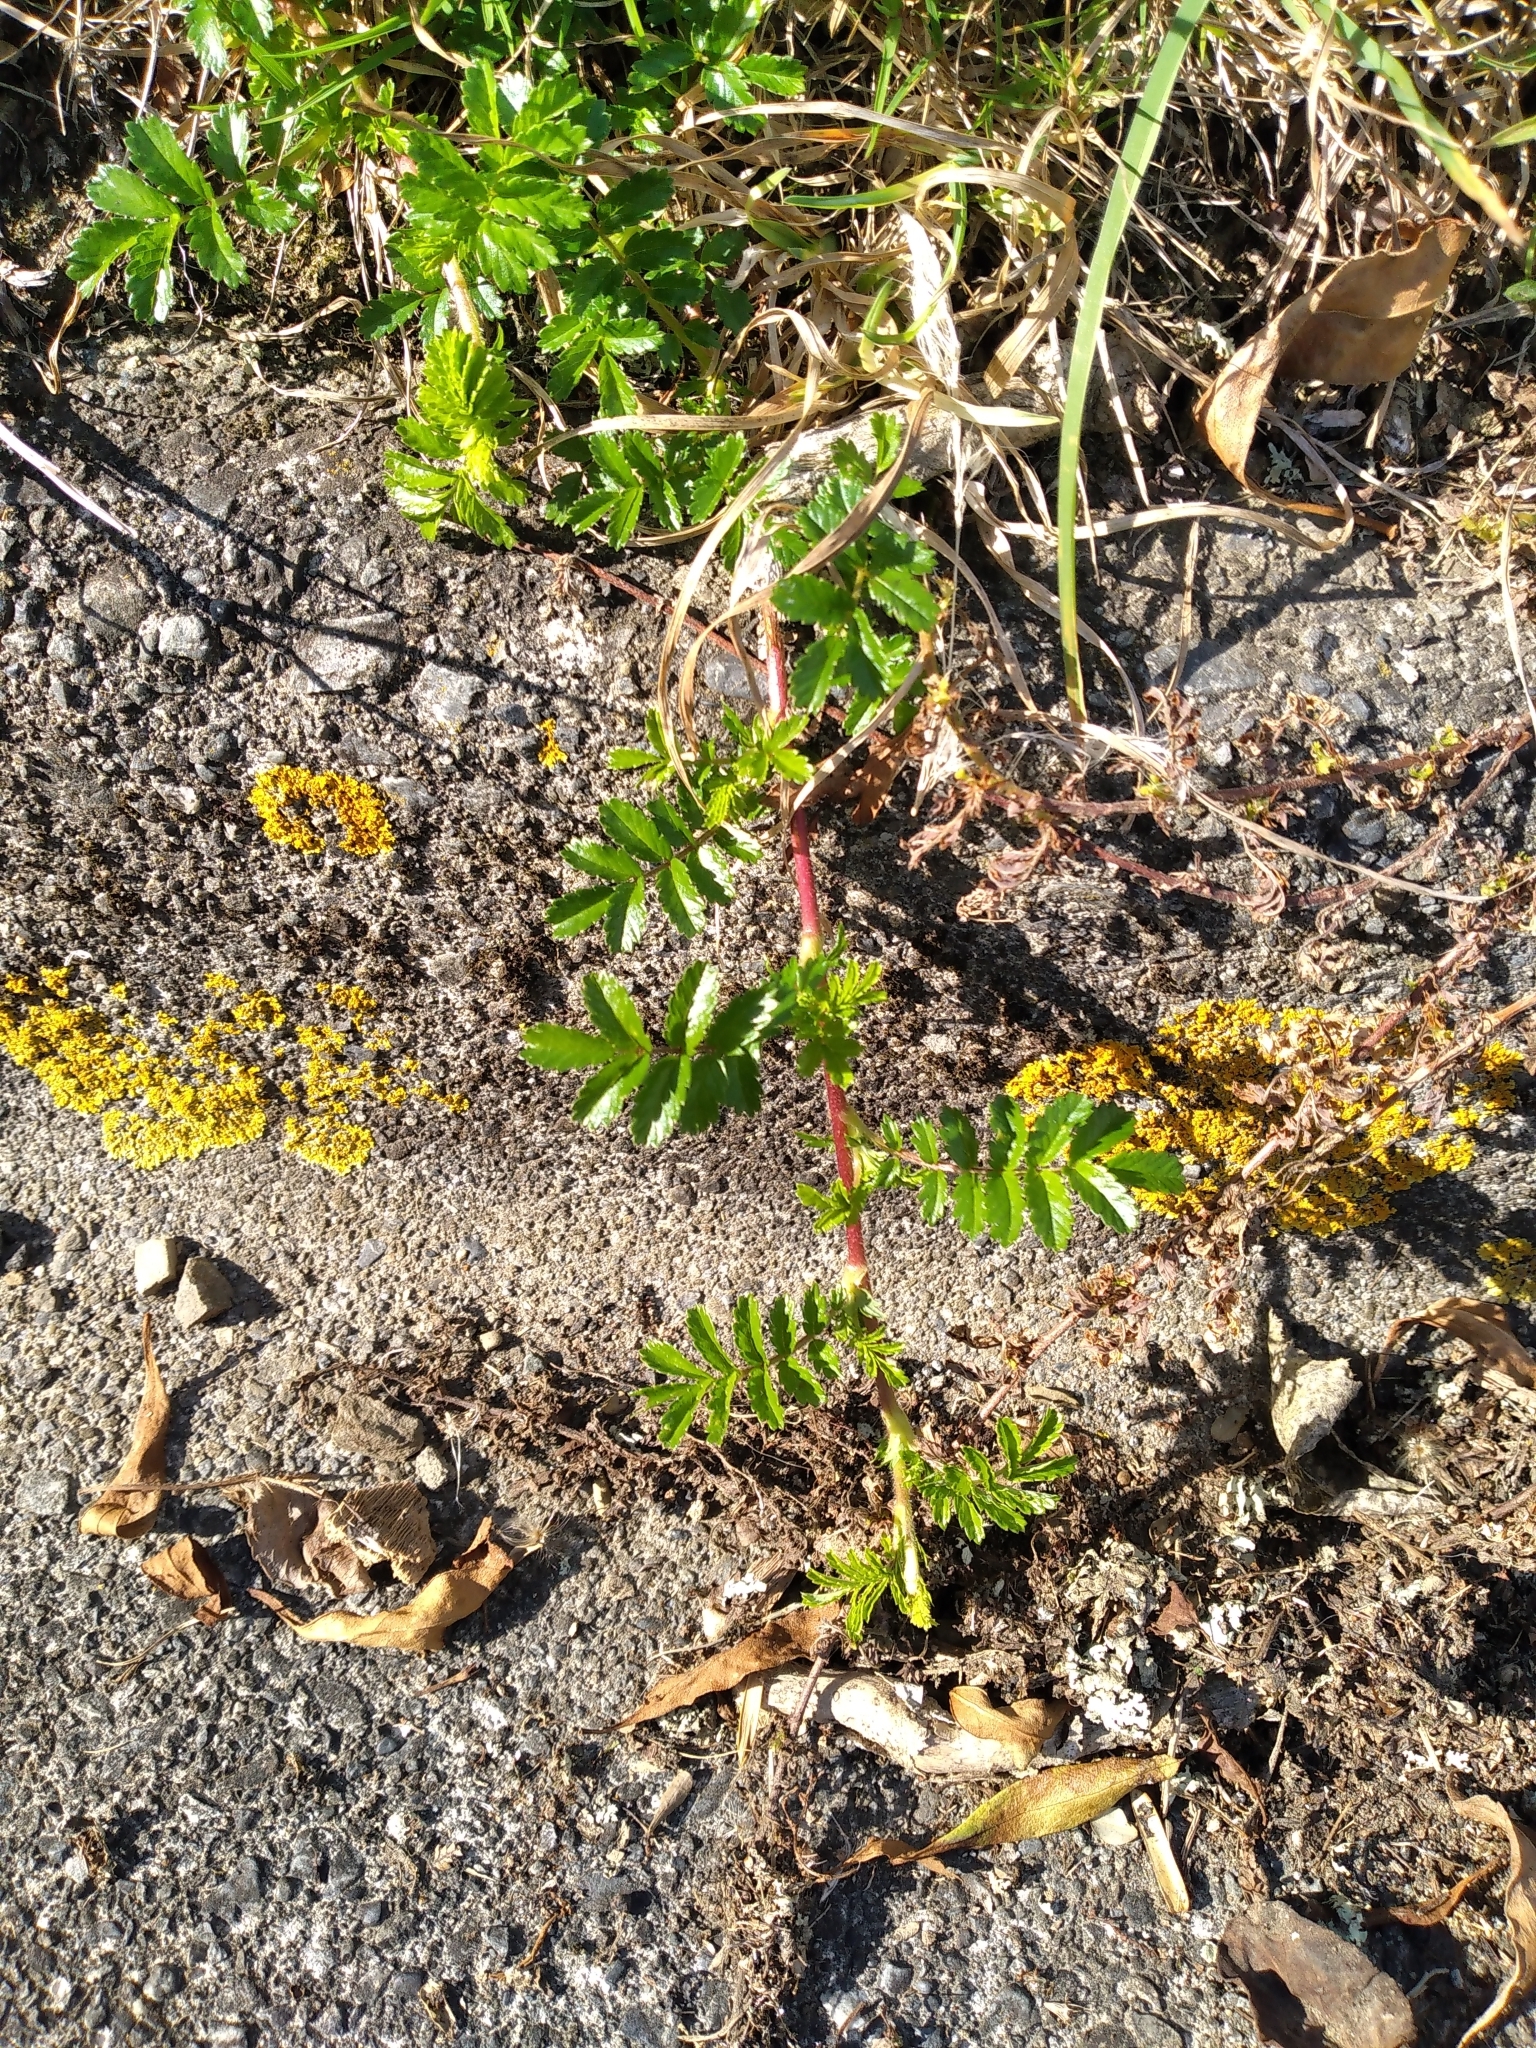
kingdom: Plantae
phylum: Tracheophyta
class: Magnoliopsida
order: Rosales
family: Rosaceae
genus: Acaena
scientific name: Acaena novae-zelandiae
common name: Pirri-pirri-bur
